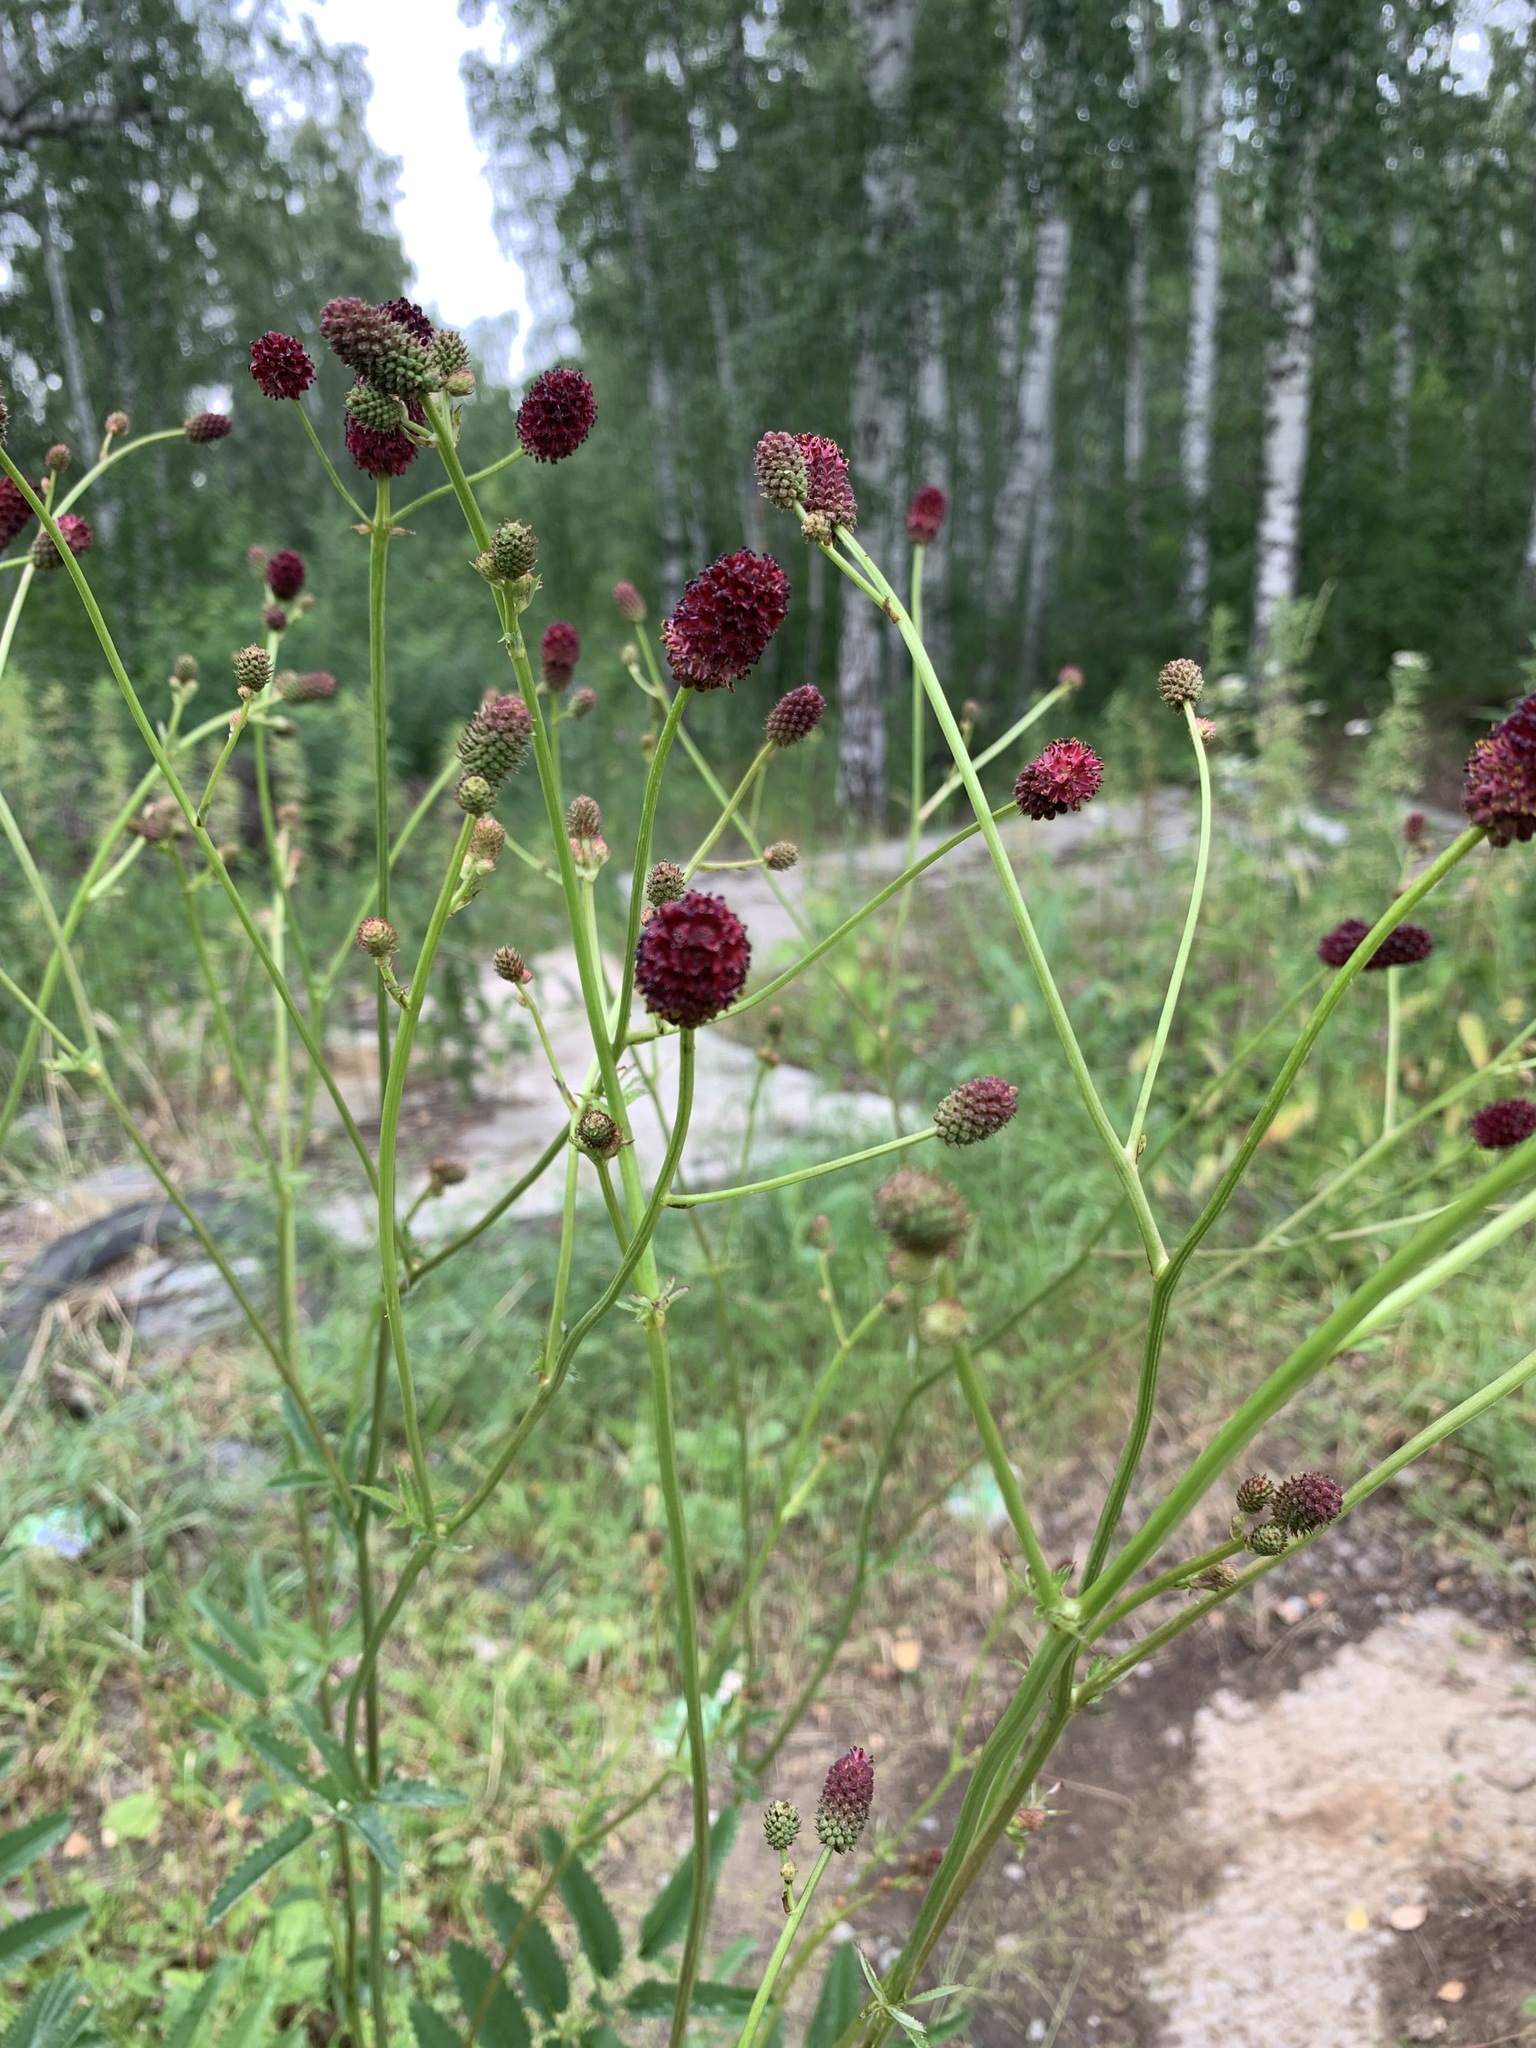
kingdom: Plantae
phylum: Tracheophyta
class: Magnoliopsida
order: Rosales
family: Rosaceae
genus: Sanguisorba
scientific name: Sanguisorba officinalis
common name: Great burnet
